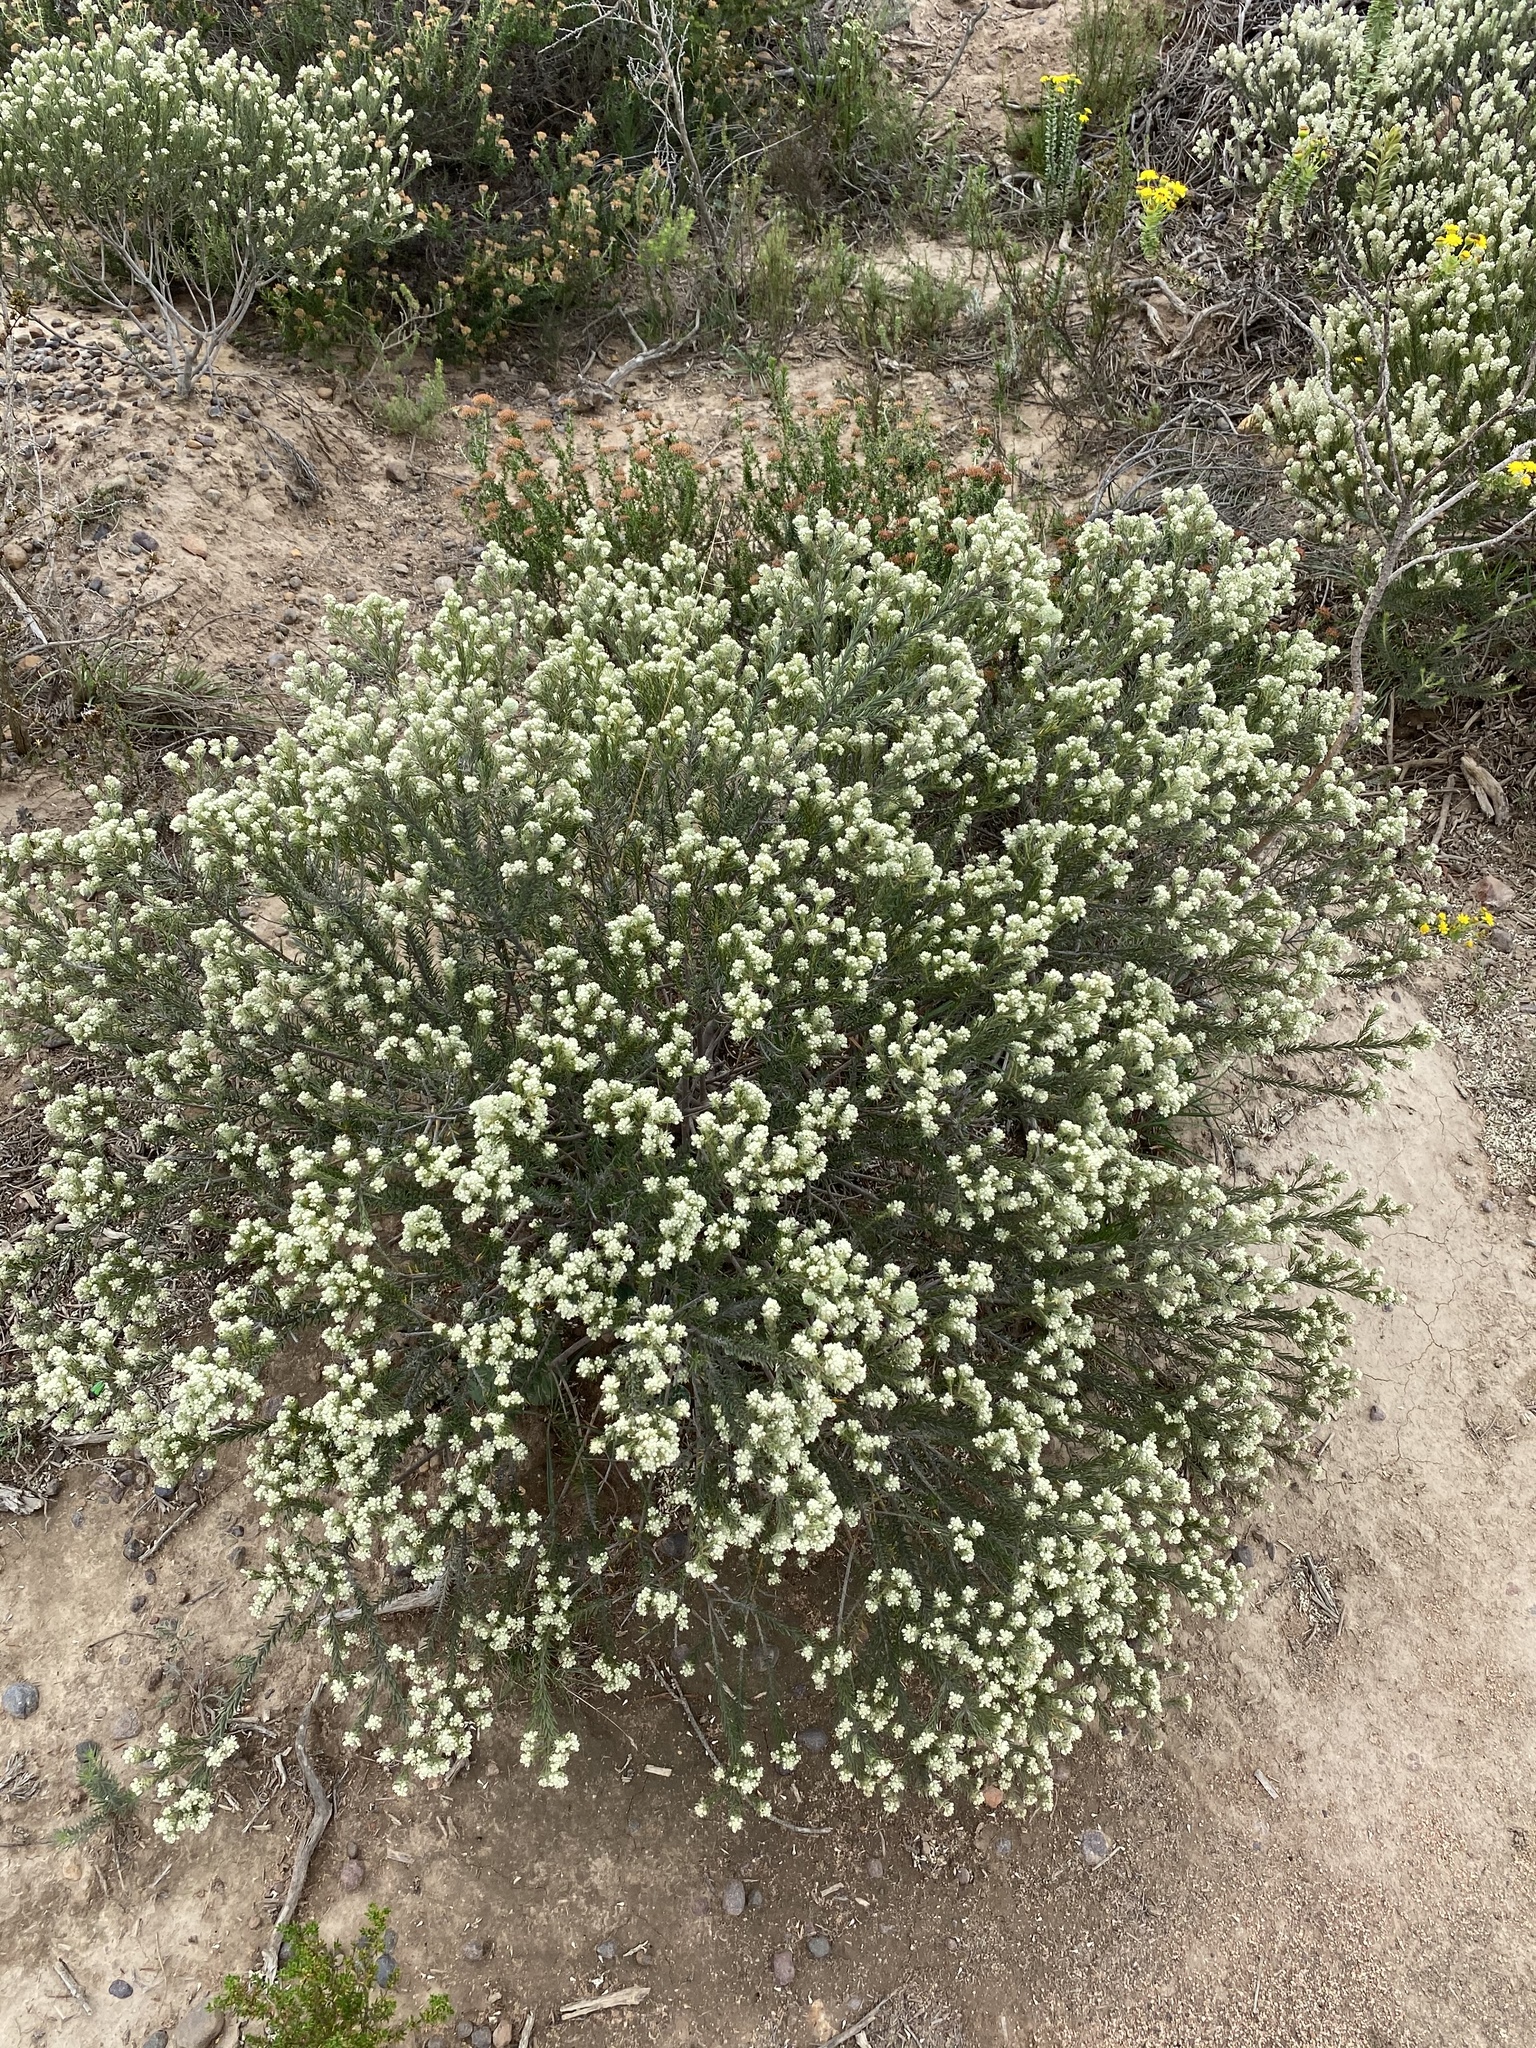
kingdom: Plantae
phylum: Tracheophyta
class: Magnoliopsida
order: Rosales
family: Rhamnaceae
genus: Phylica
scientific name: Phylica axillaris
